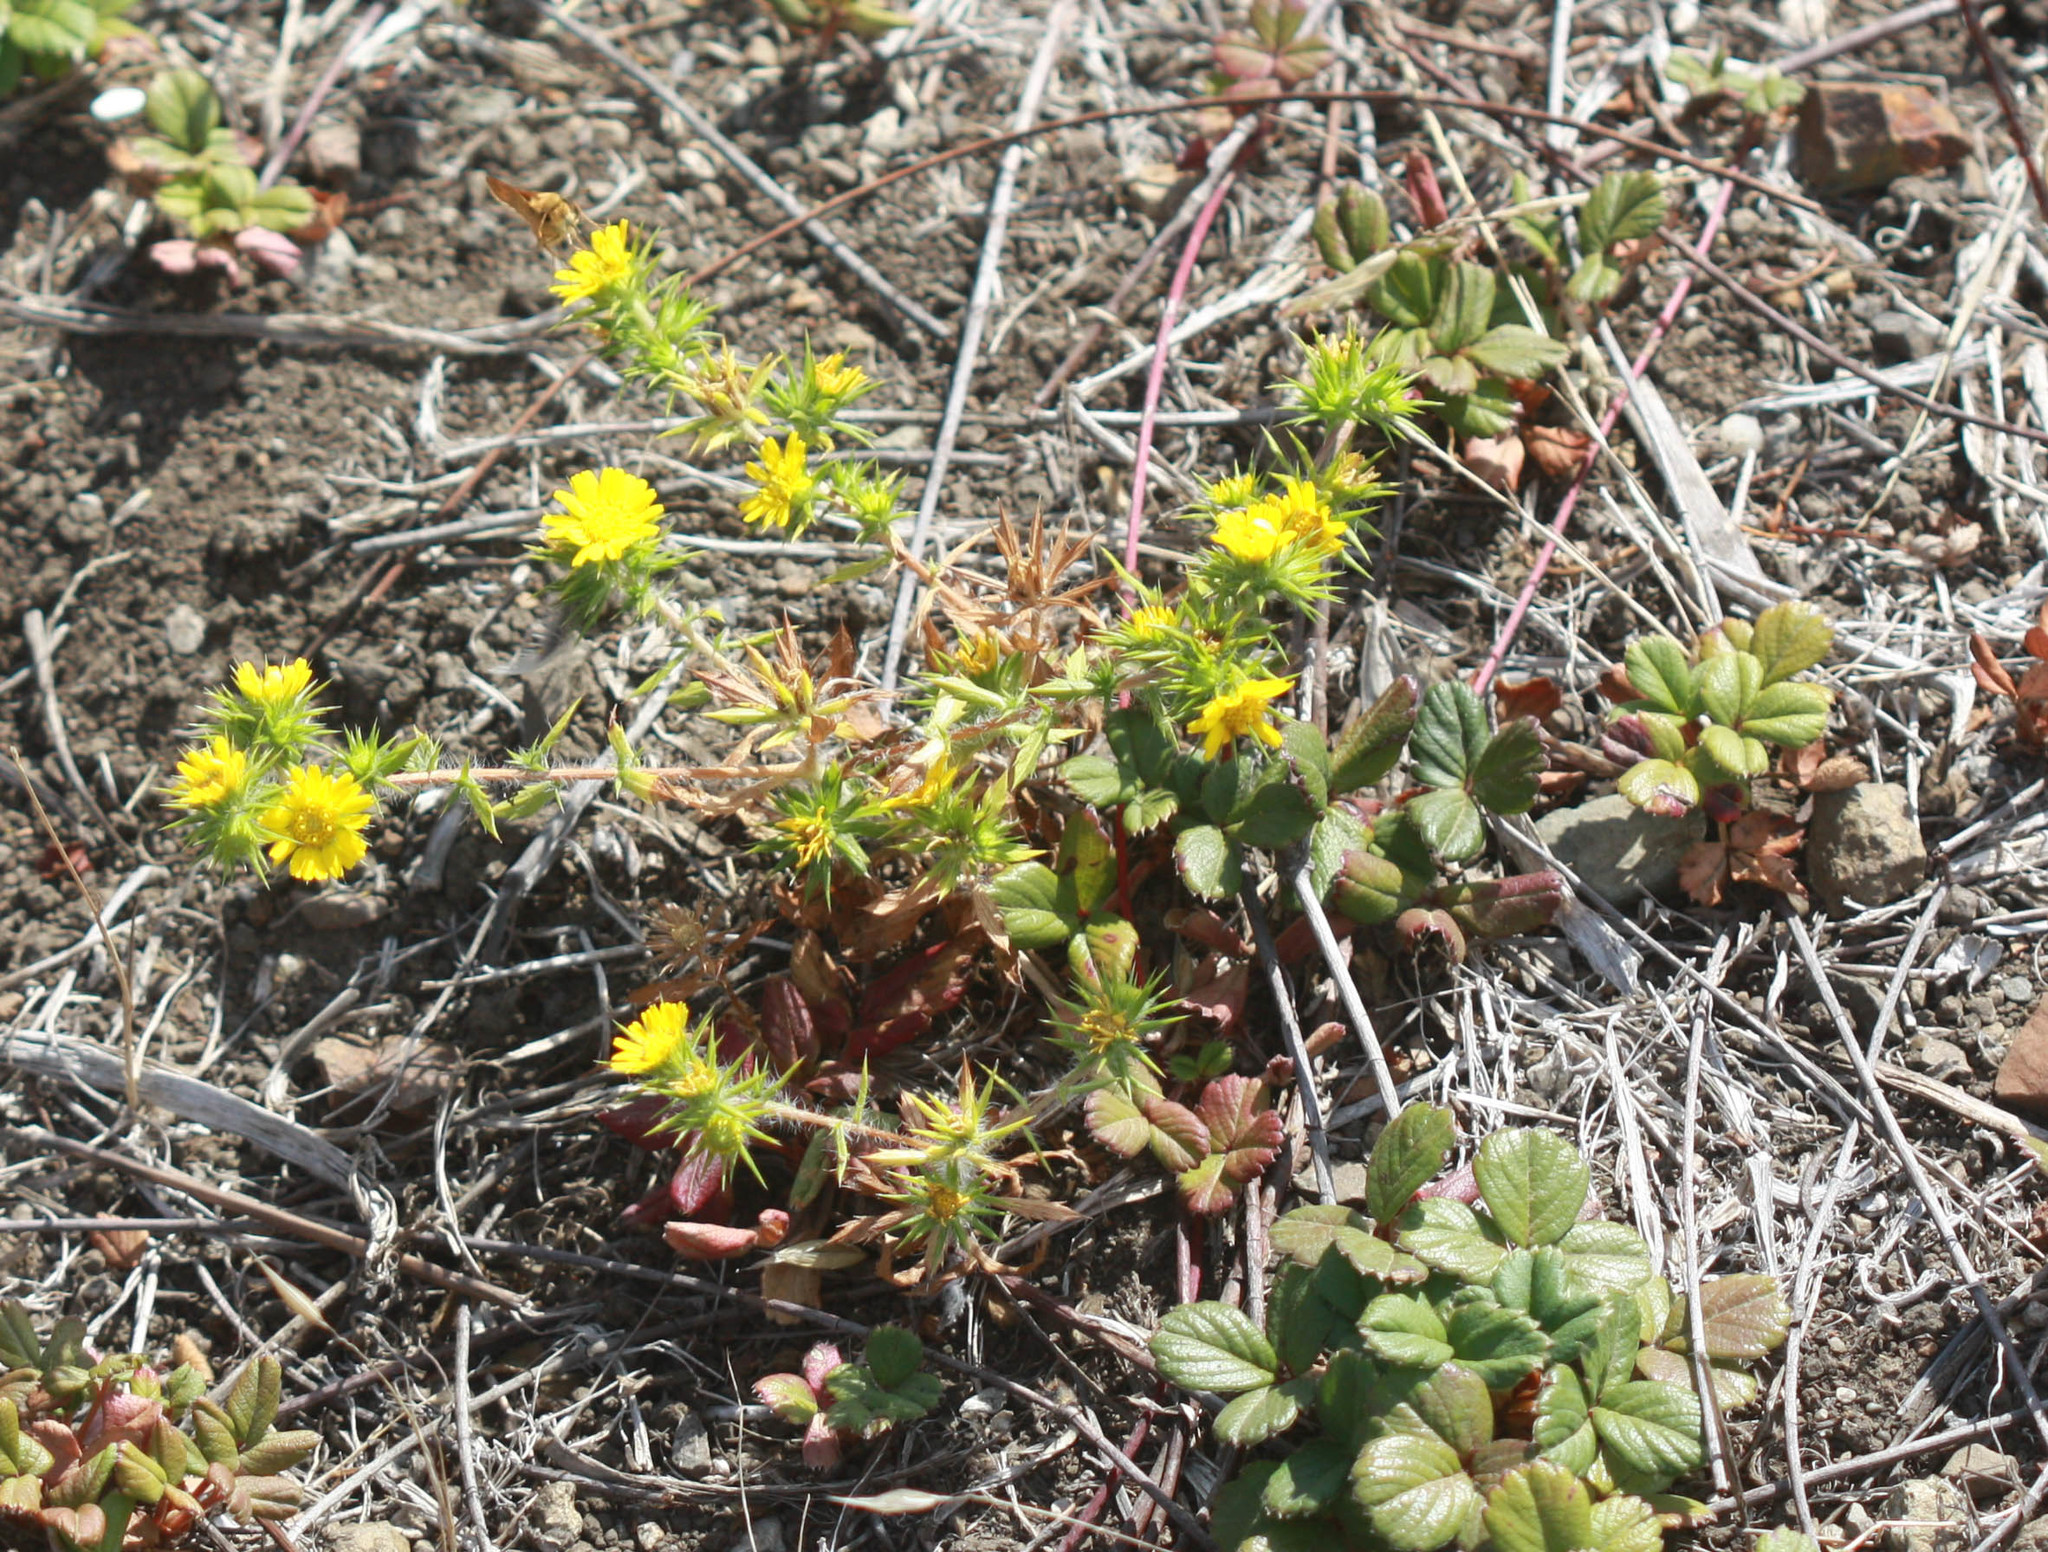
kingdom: Plantae
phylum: Tracheophyta
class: Magnoliopsida
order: Asterales
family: Asteraceae
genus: Centromadia
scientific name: Centromadia parryi
